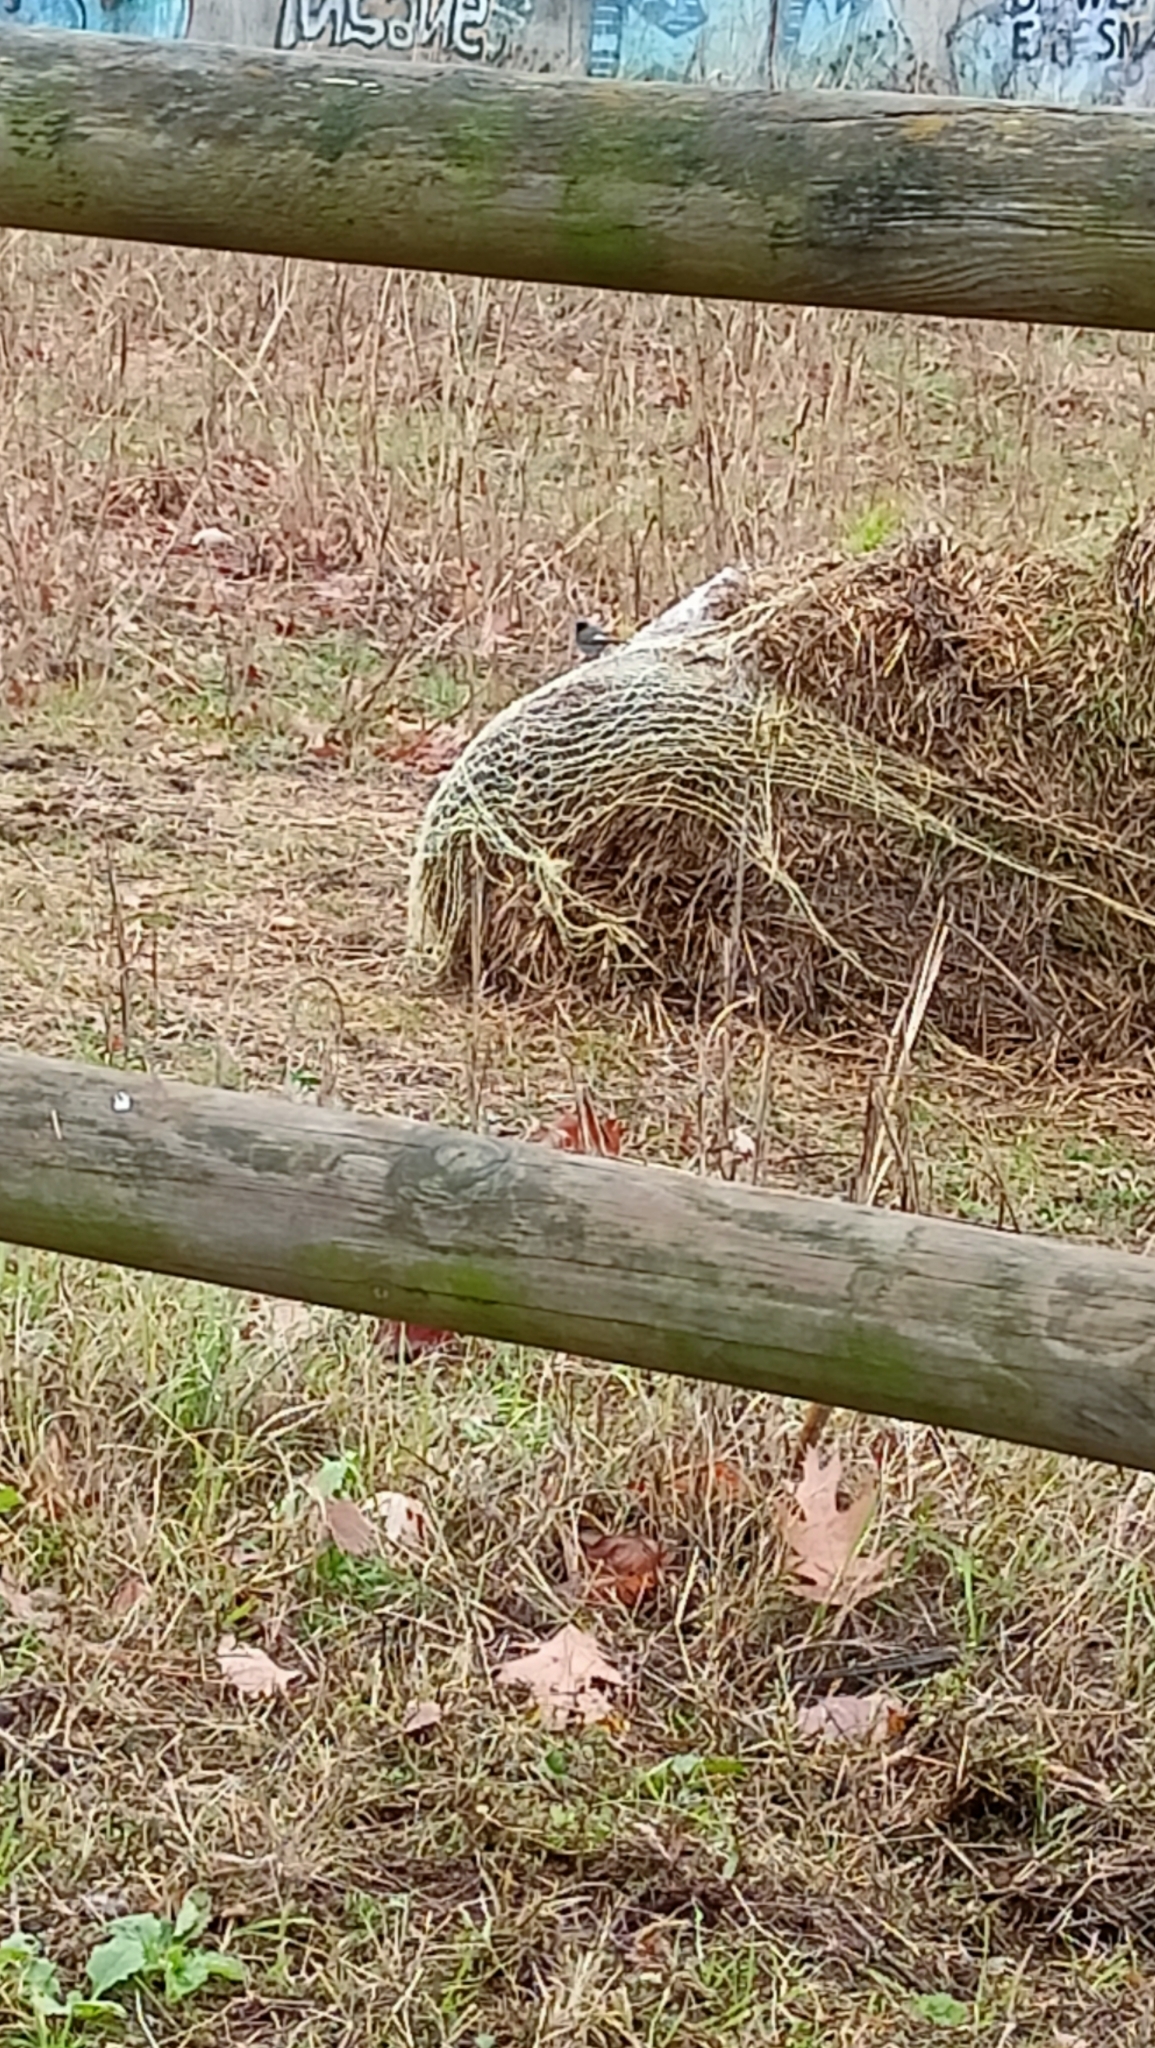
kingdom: Animalia
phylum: Chordata
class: Aves
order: Passeriformes
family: Muscicapidae
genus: Phoenicurus
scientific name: Phoenicurus ochruros
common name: Black redstart
